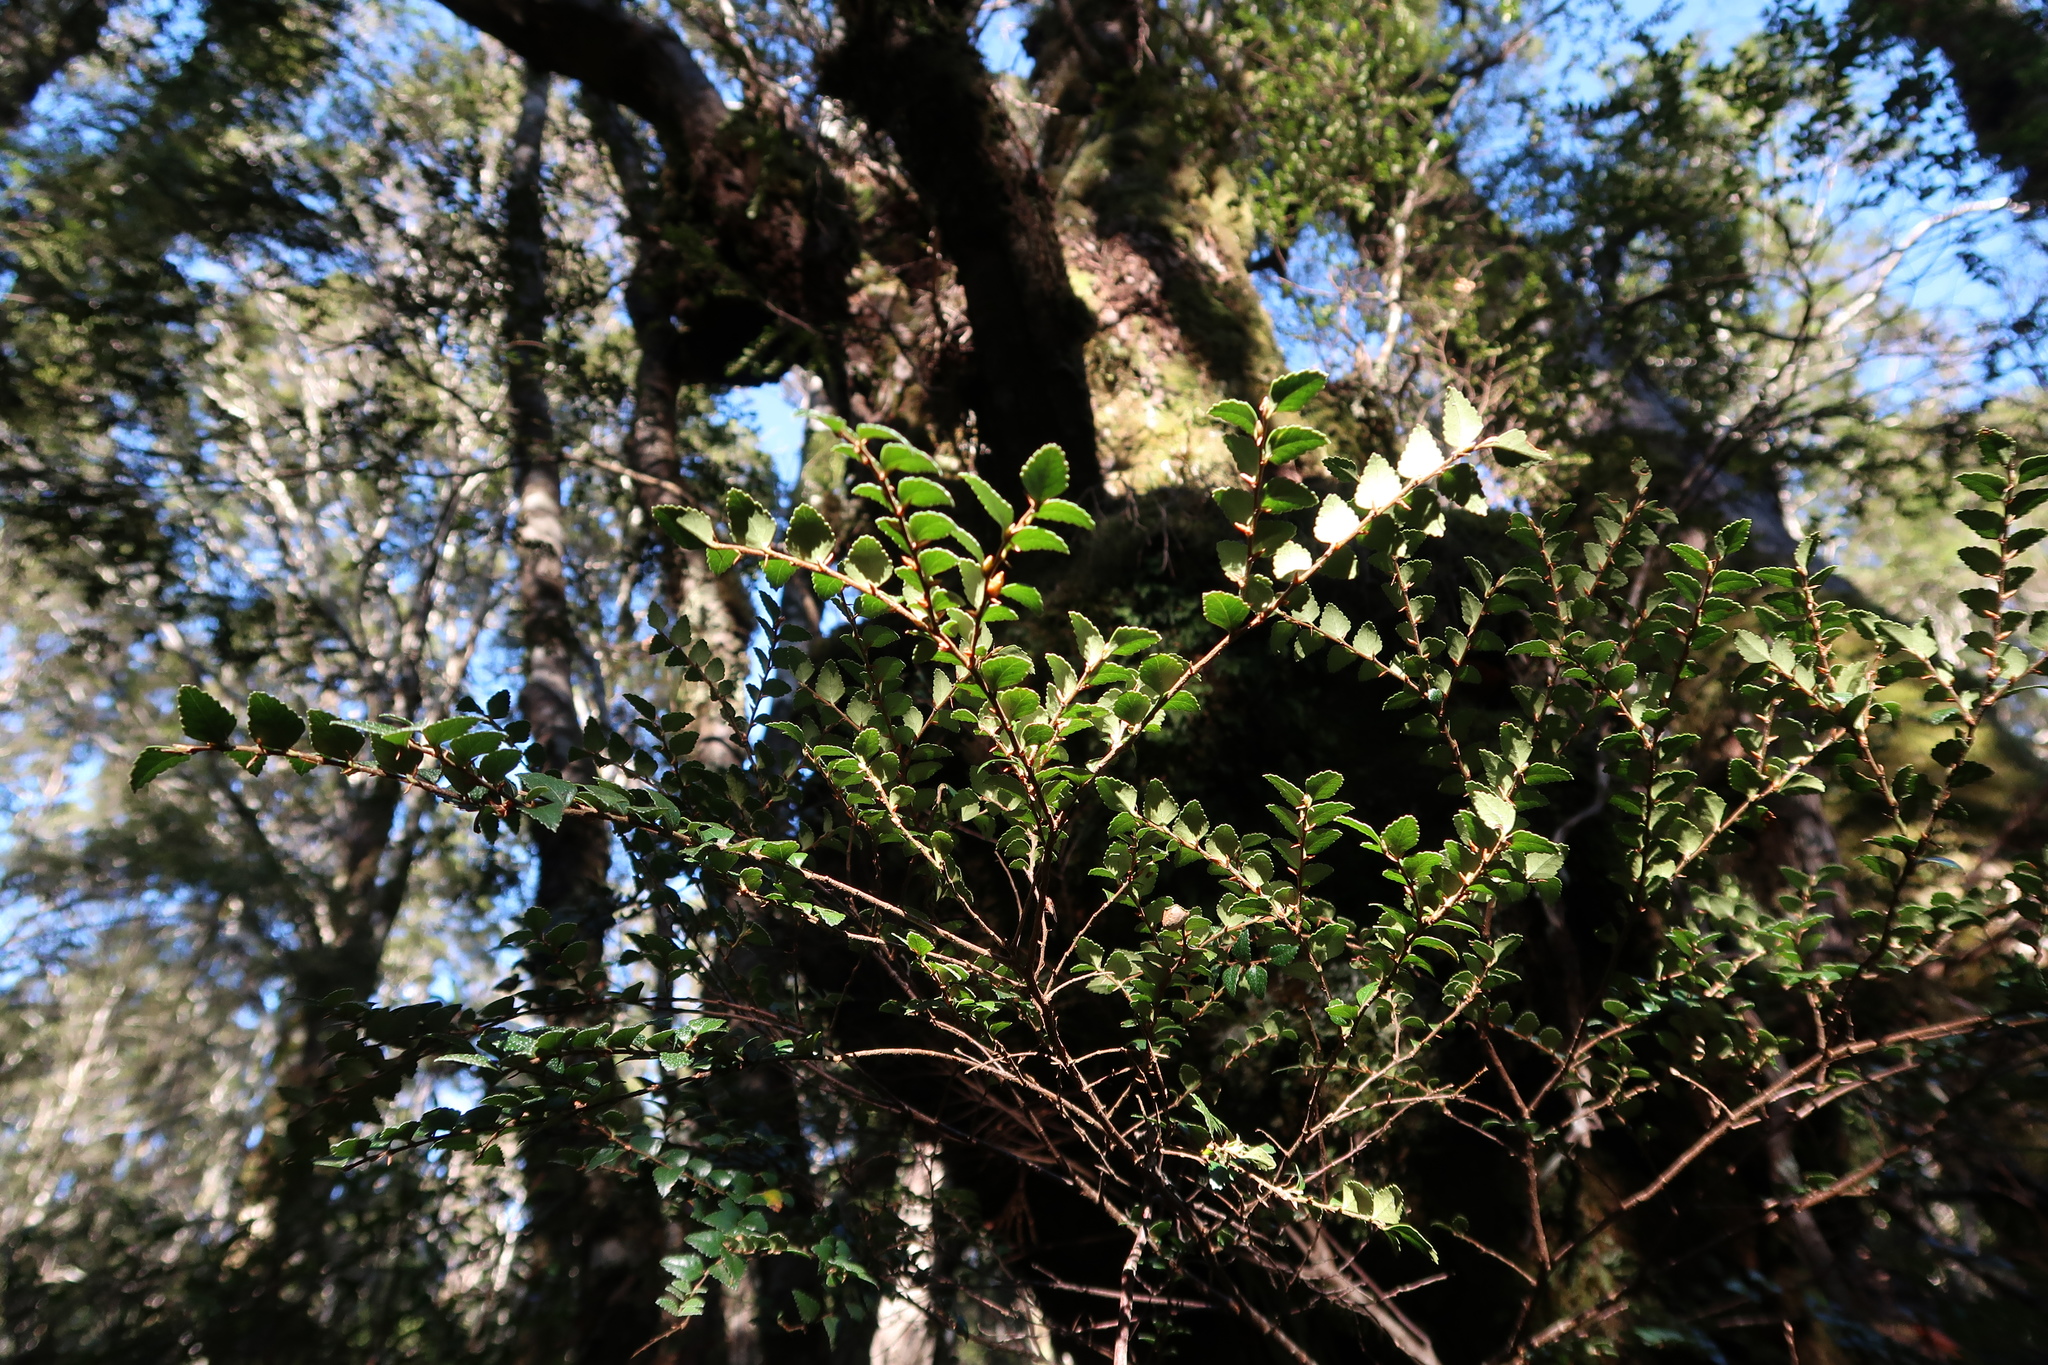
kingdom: Plantae
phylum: Tracheophyta
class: Magnoliopsida
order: Fagales
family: Nothofagaceae
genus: Nothofagus
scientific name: Nothofagus cunninghamii
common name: Myrtle beech
